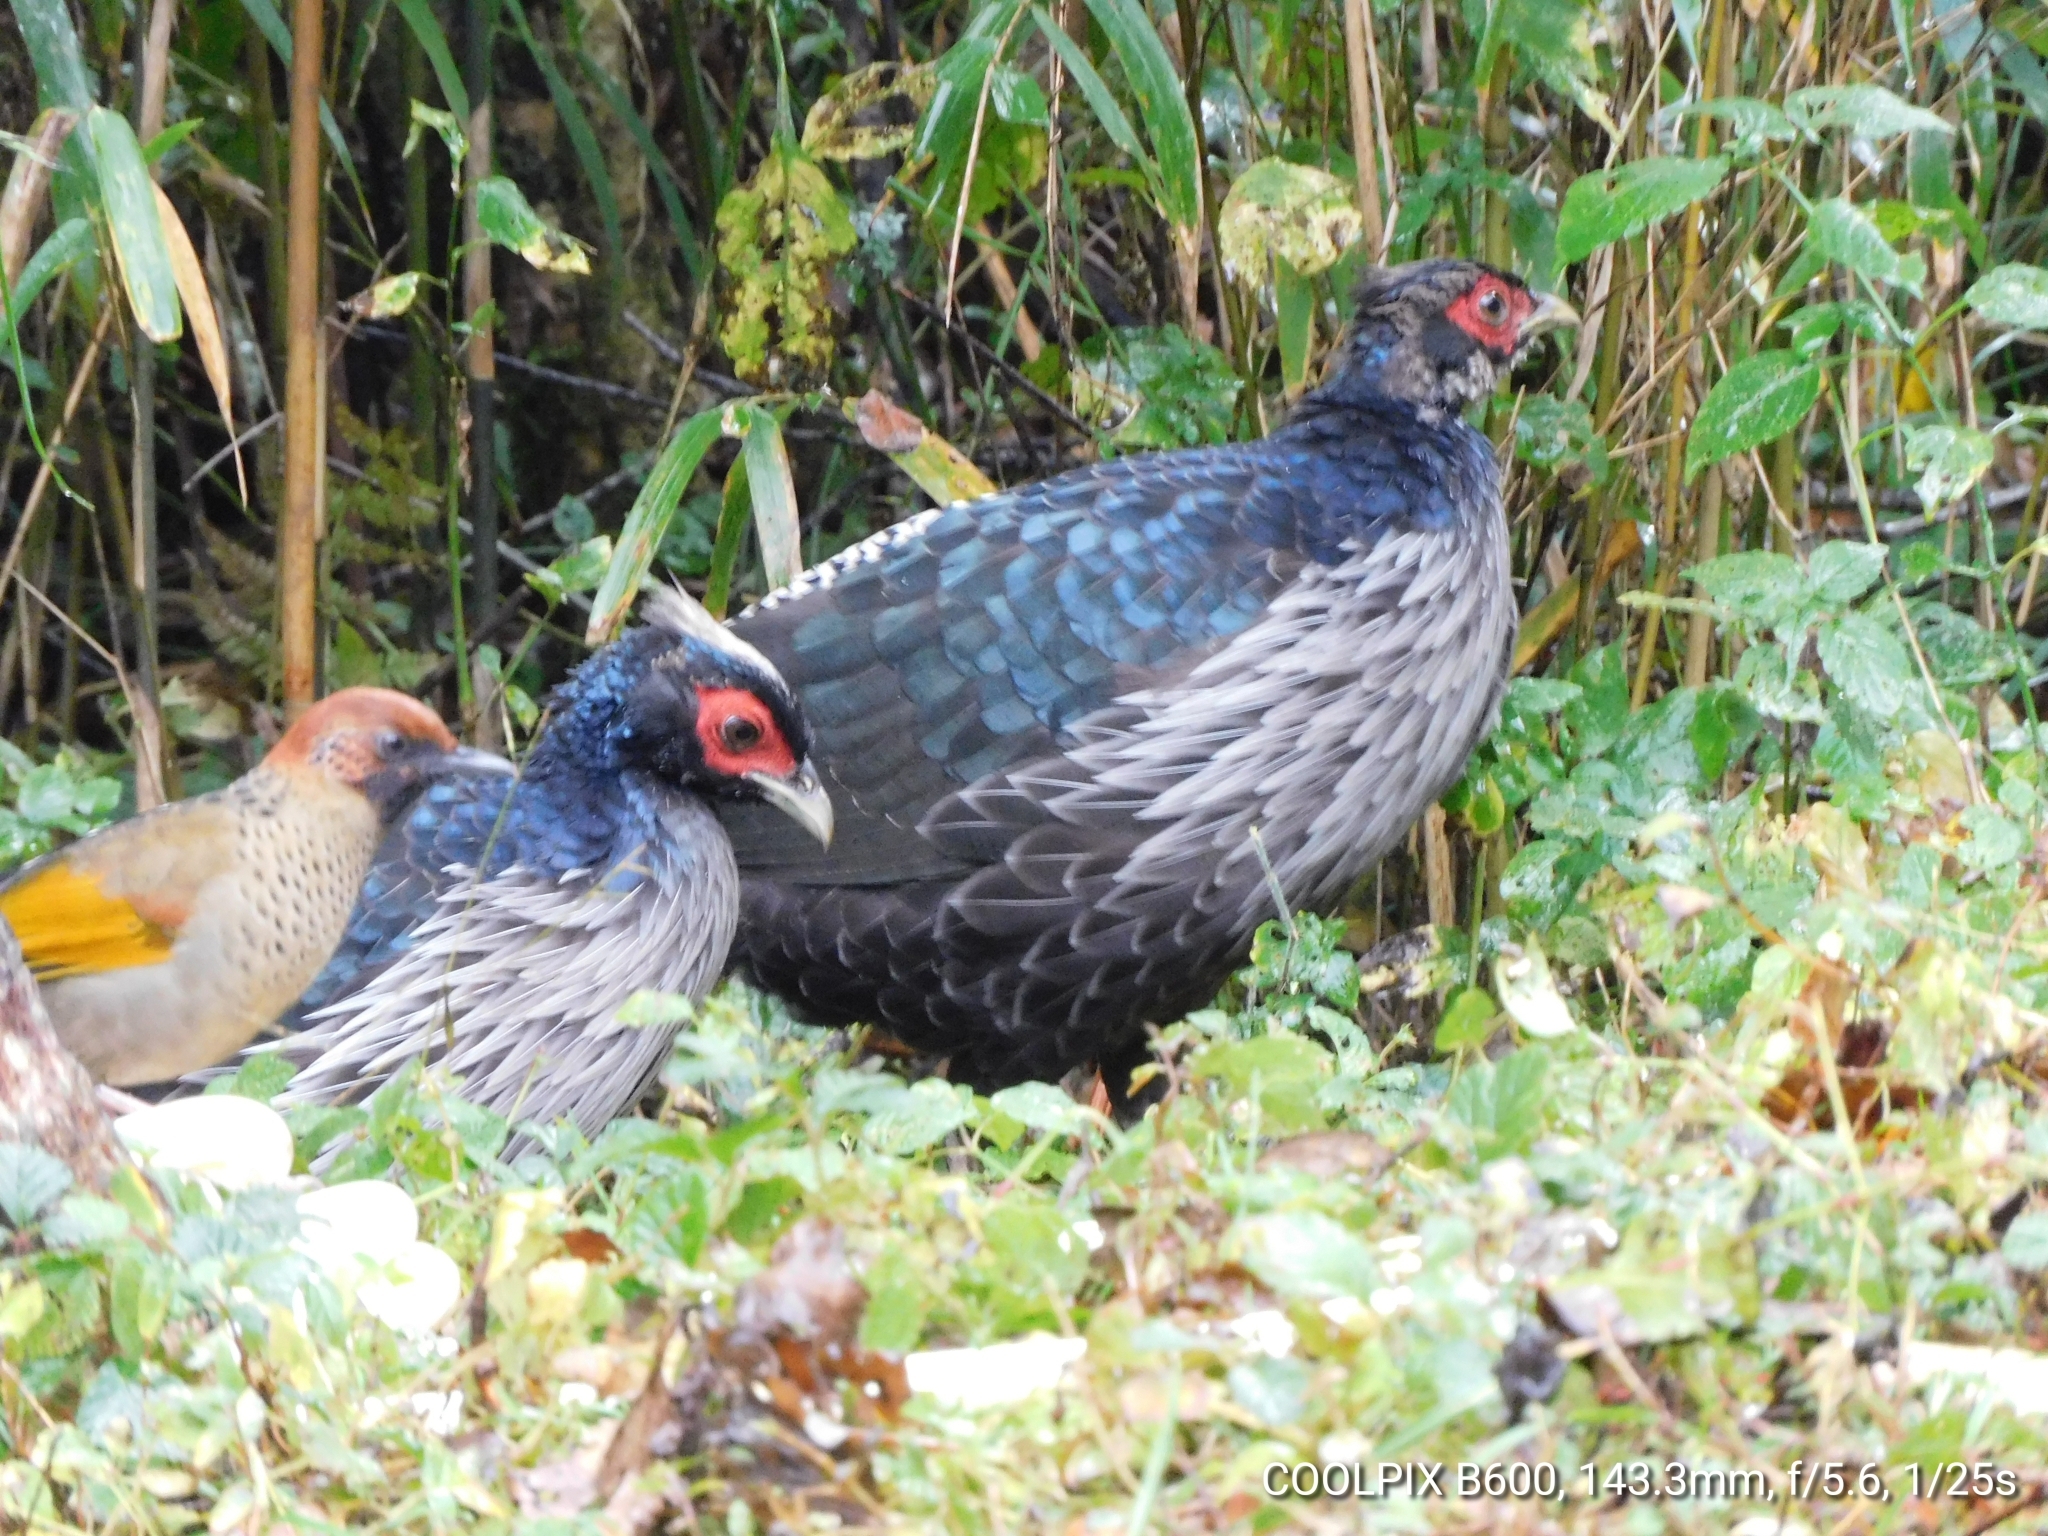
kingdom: Animalia
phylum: Chordata
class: Aves
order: Galliformes
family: Phasianidae
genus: Lophura
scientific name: Lophura leucomelanos
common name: Kalij pheasant
